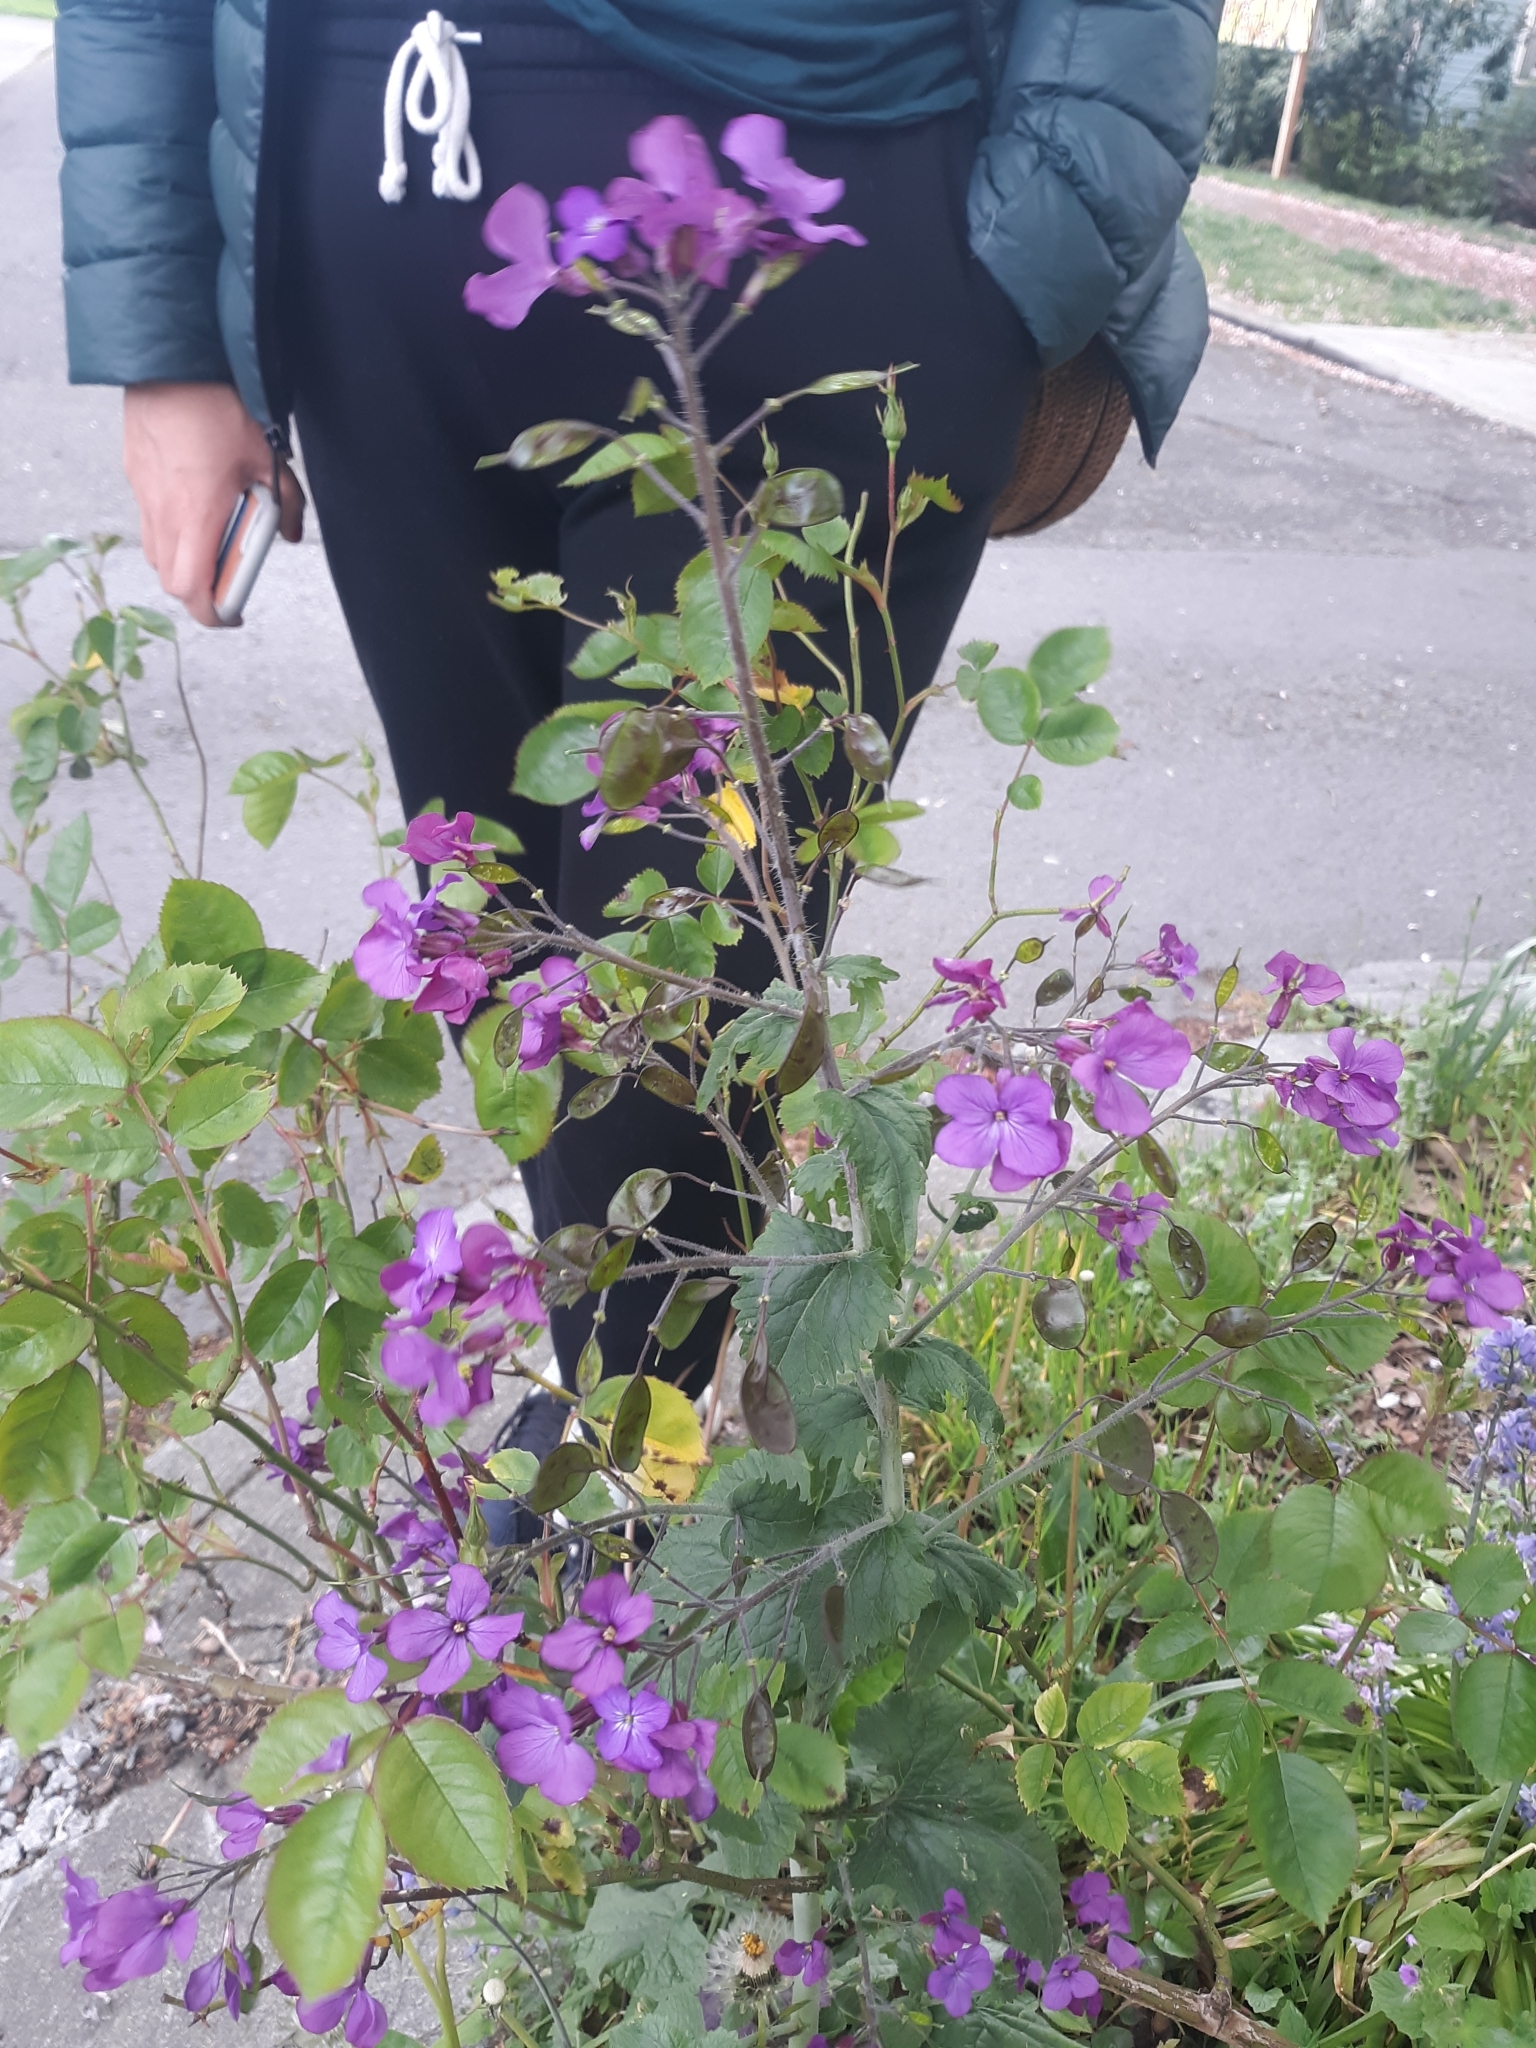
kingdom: Plantae
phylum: Tracheophyta
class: Magnoliopsida
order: Brassicales
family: Brassicaceae
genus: Lunaria
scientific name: Lunaria annua
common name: Honesty
